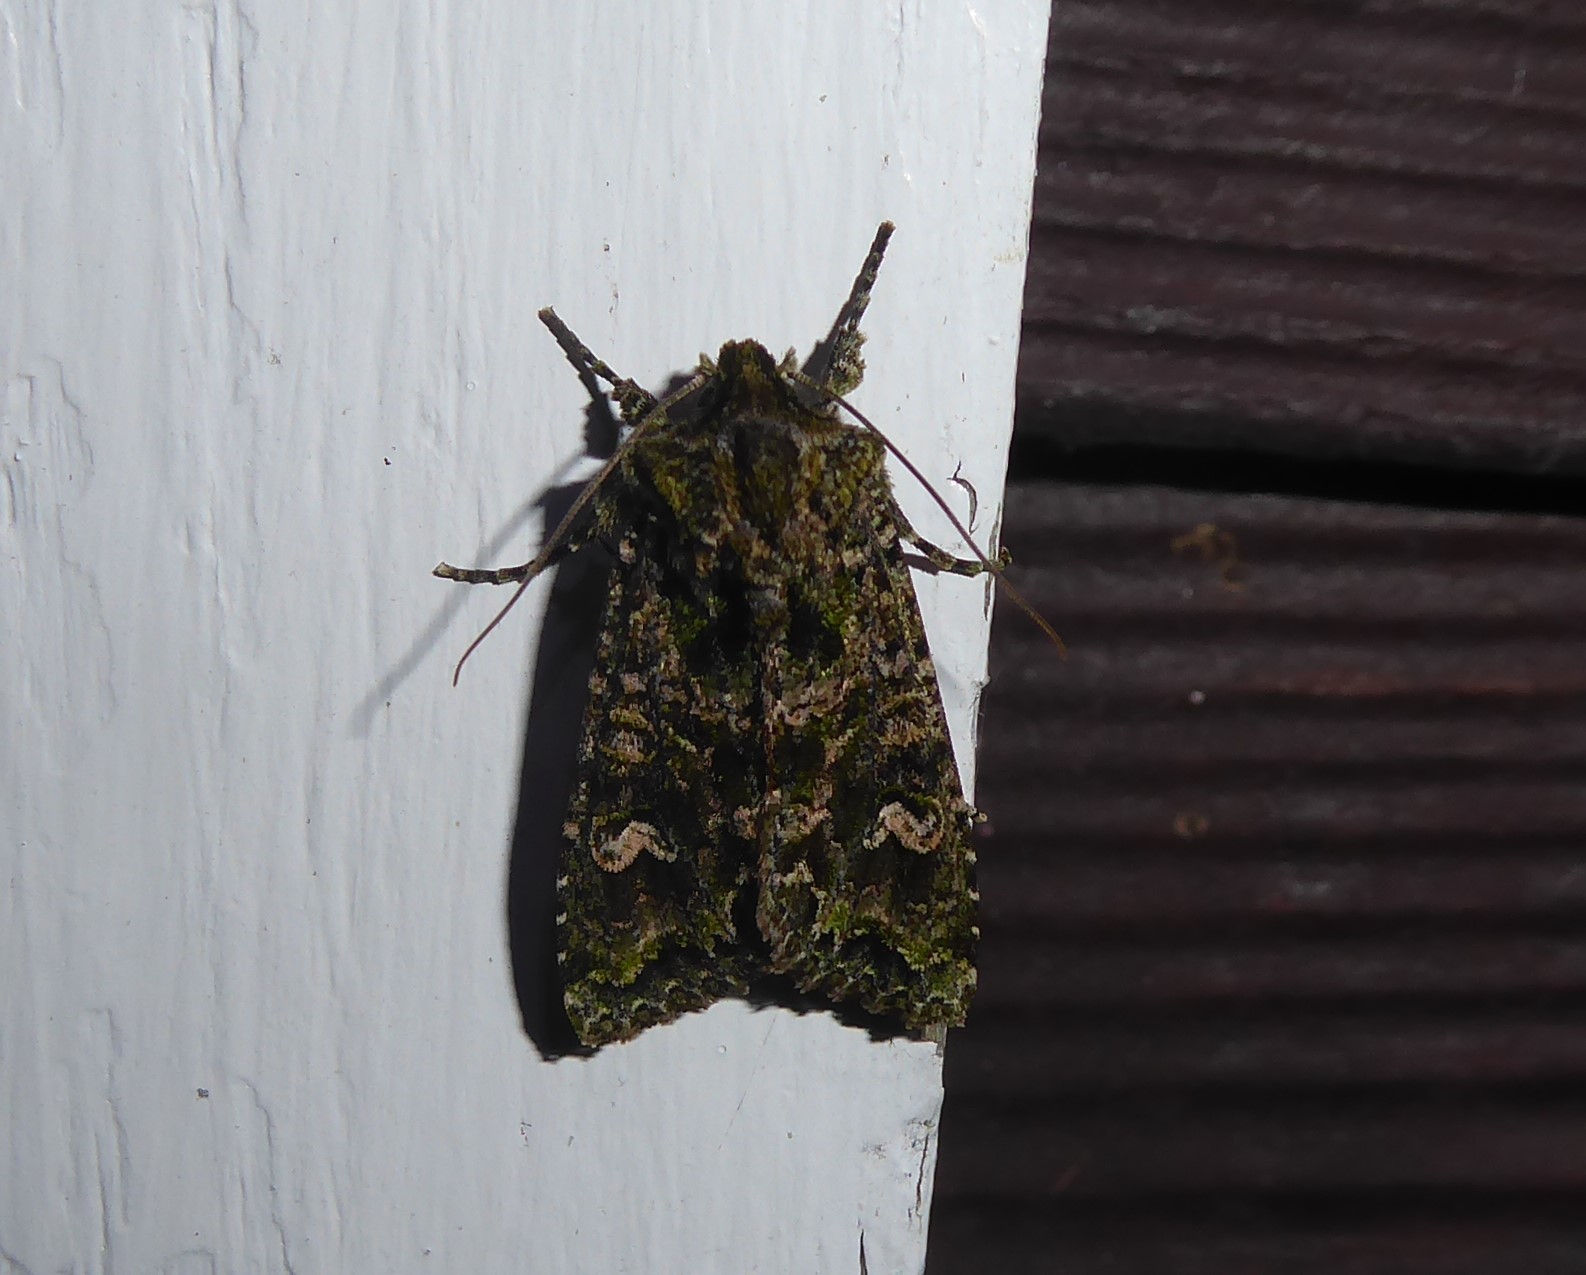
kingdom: Animalia
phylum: Arthropoda
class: Insecta
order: Lepidoptera
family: Noctuidae
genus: Ichneutica
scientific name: Ichneutica
